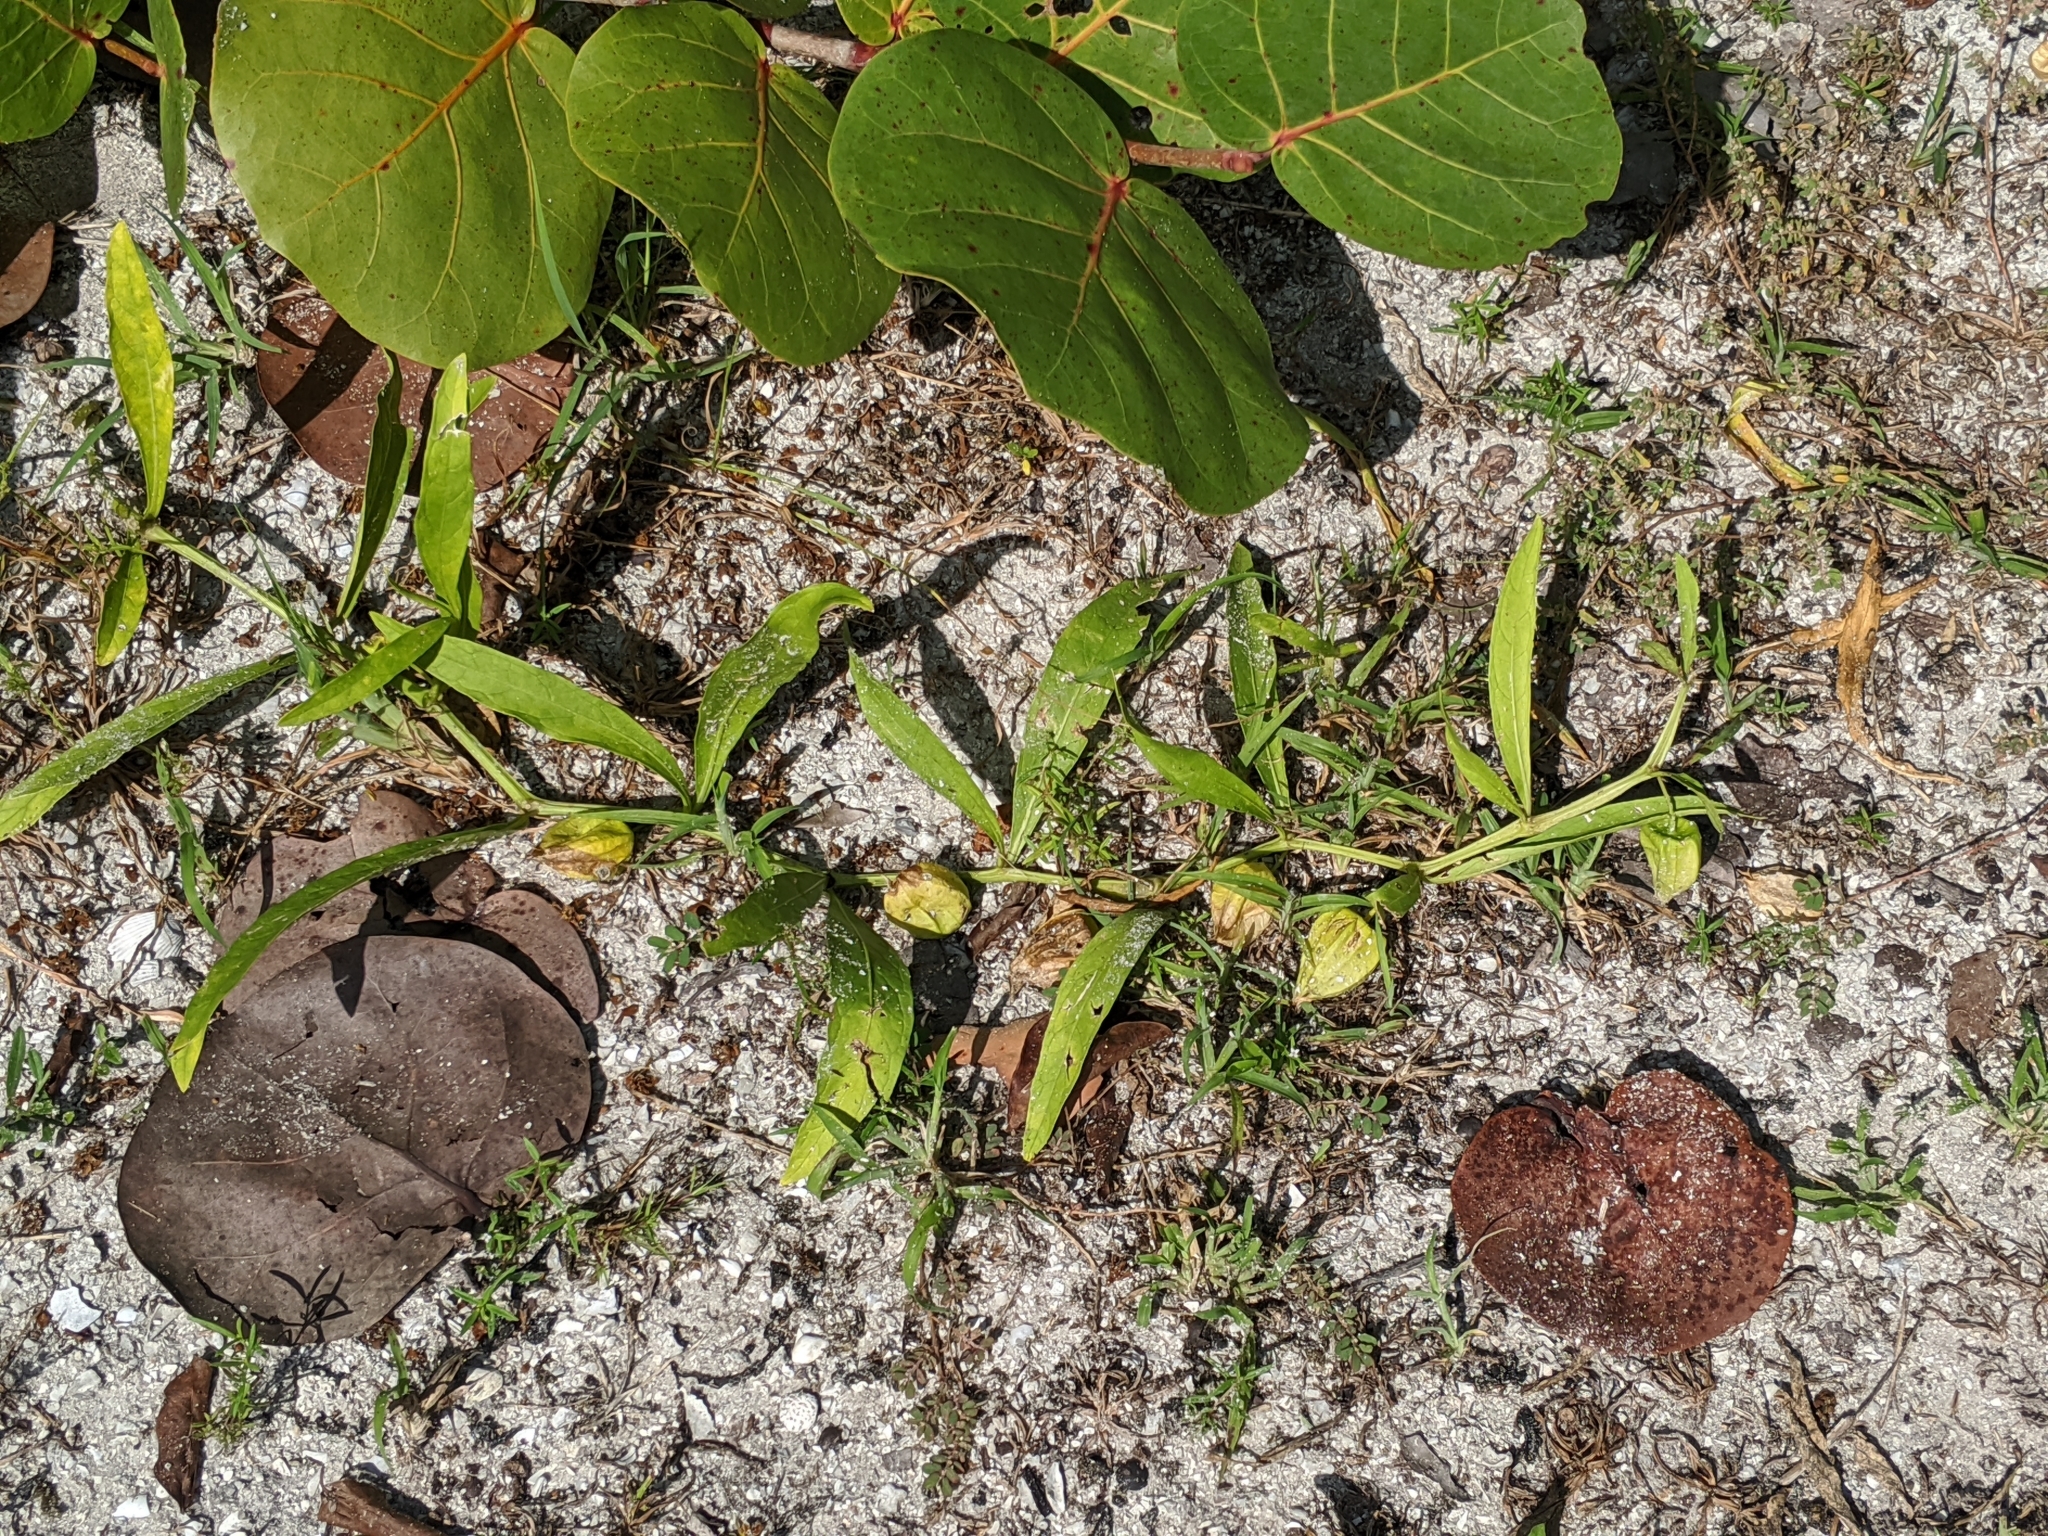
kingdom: Plantae
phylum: Tracheophyta
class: Magnoliopsida
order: Solanales
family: Solanaceae
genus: Physalis
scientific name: Physalis angustifolia
